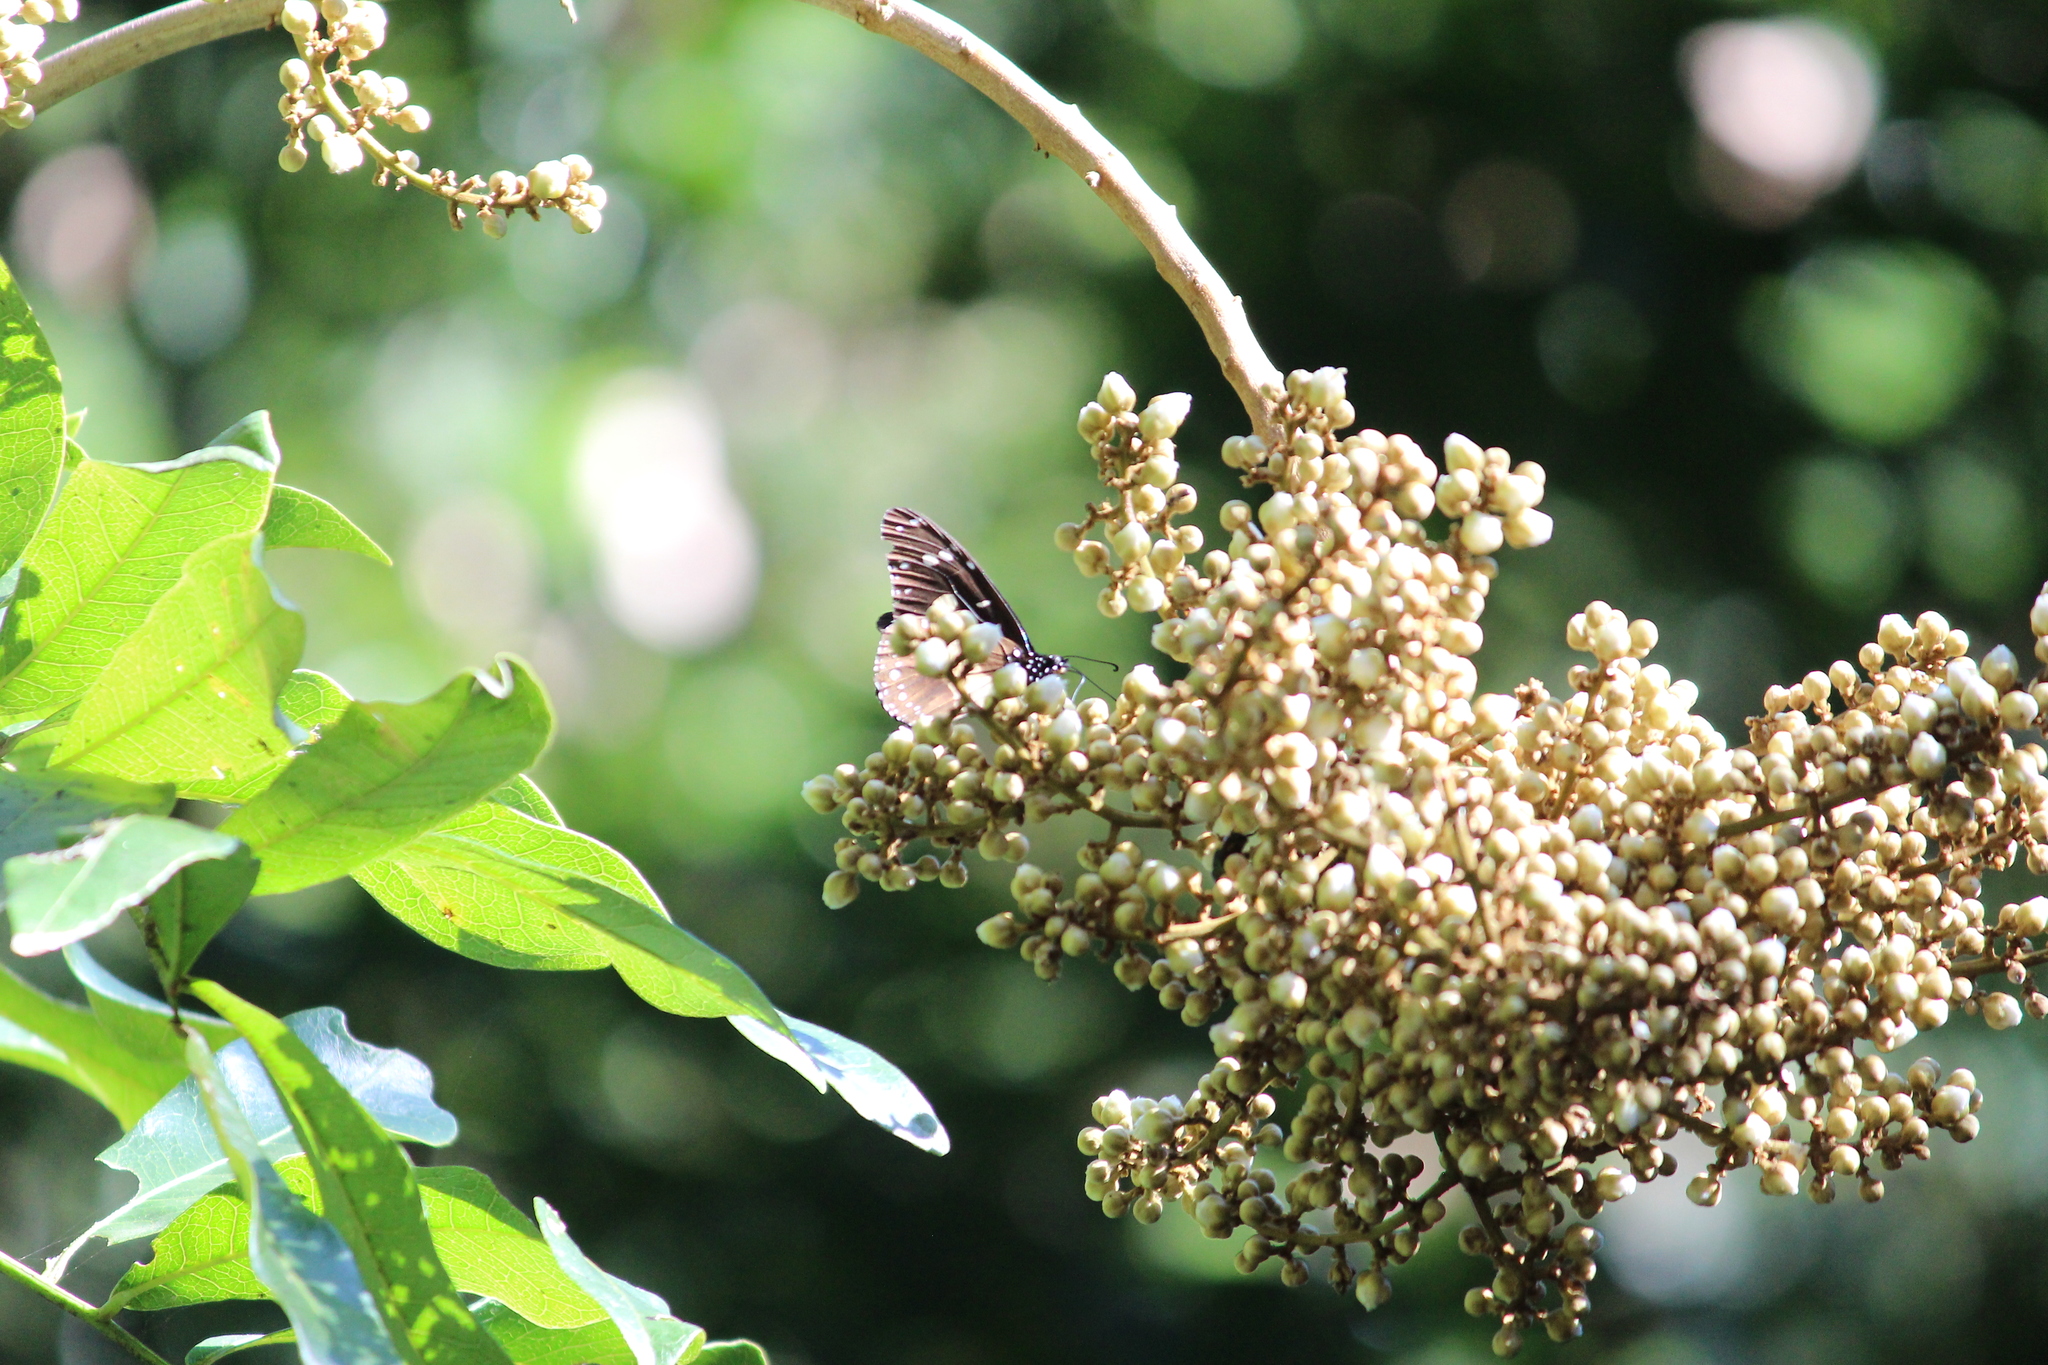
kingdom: Animalia
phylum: Arthropoda
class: Insecta
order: Lepidoptera
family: Nymphalidae
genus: Amauris
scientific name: Amauris echeria
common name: Chief
